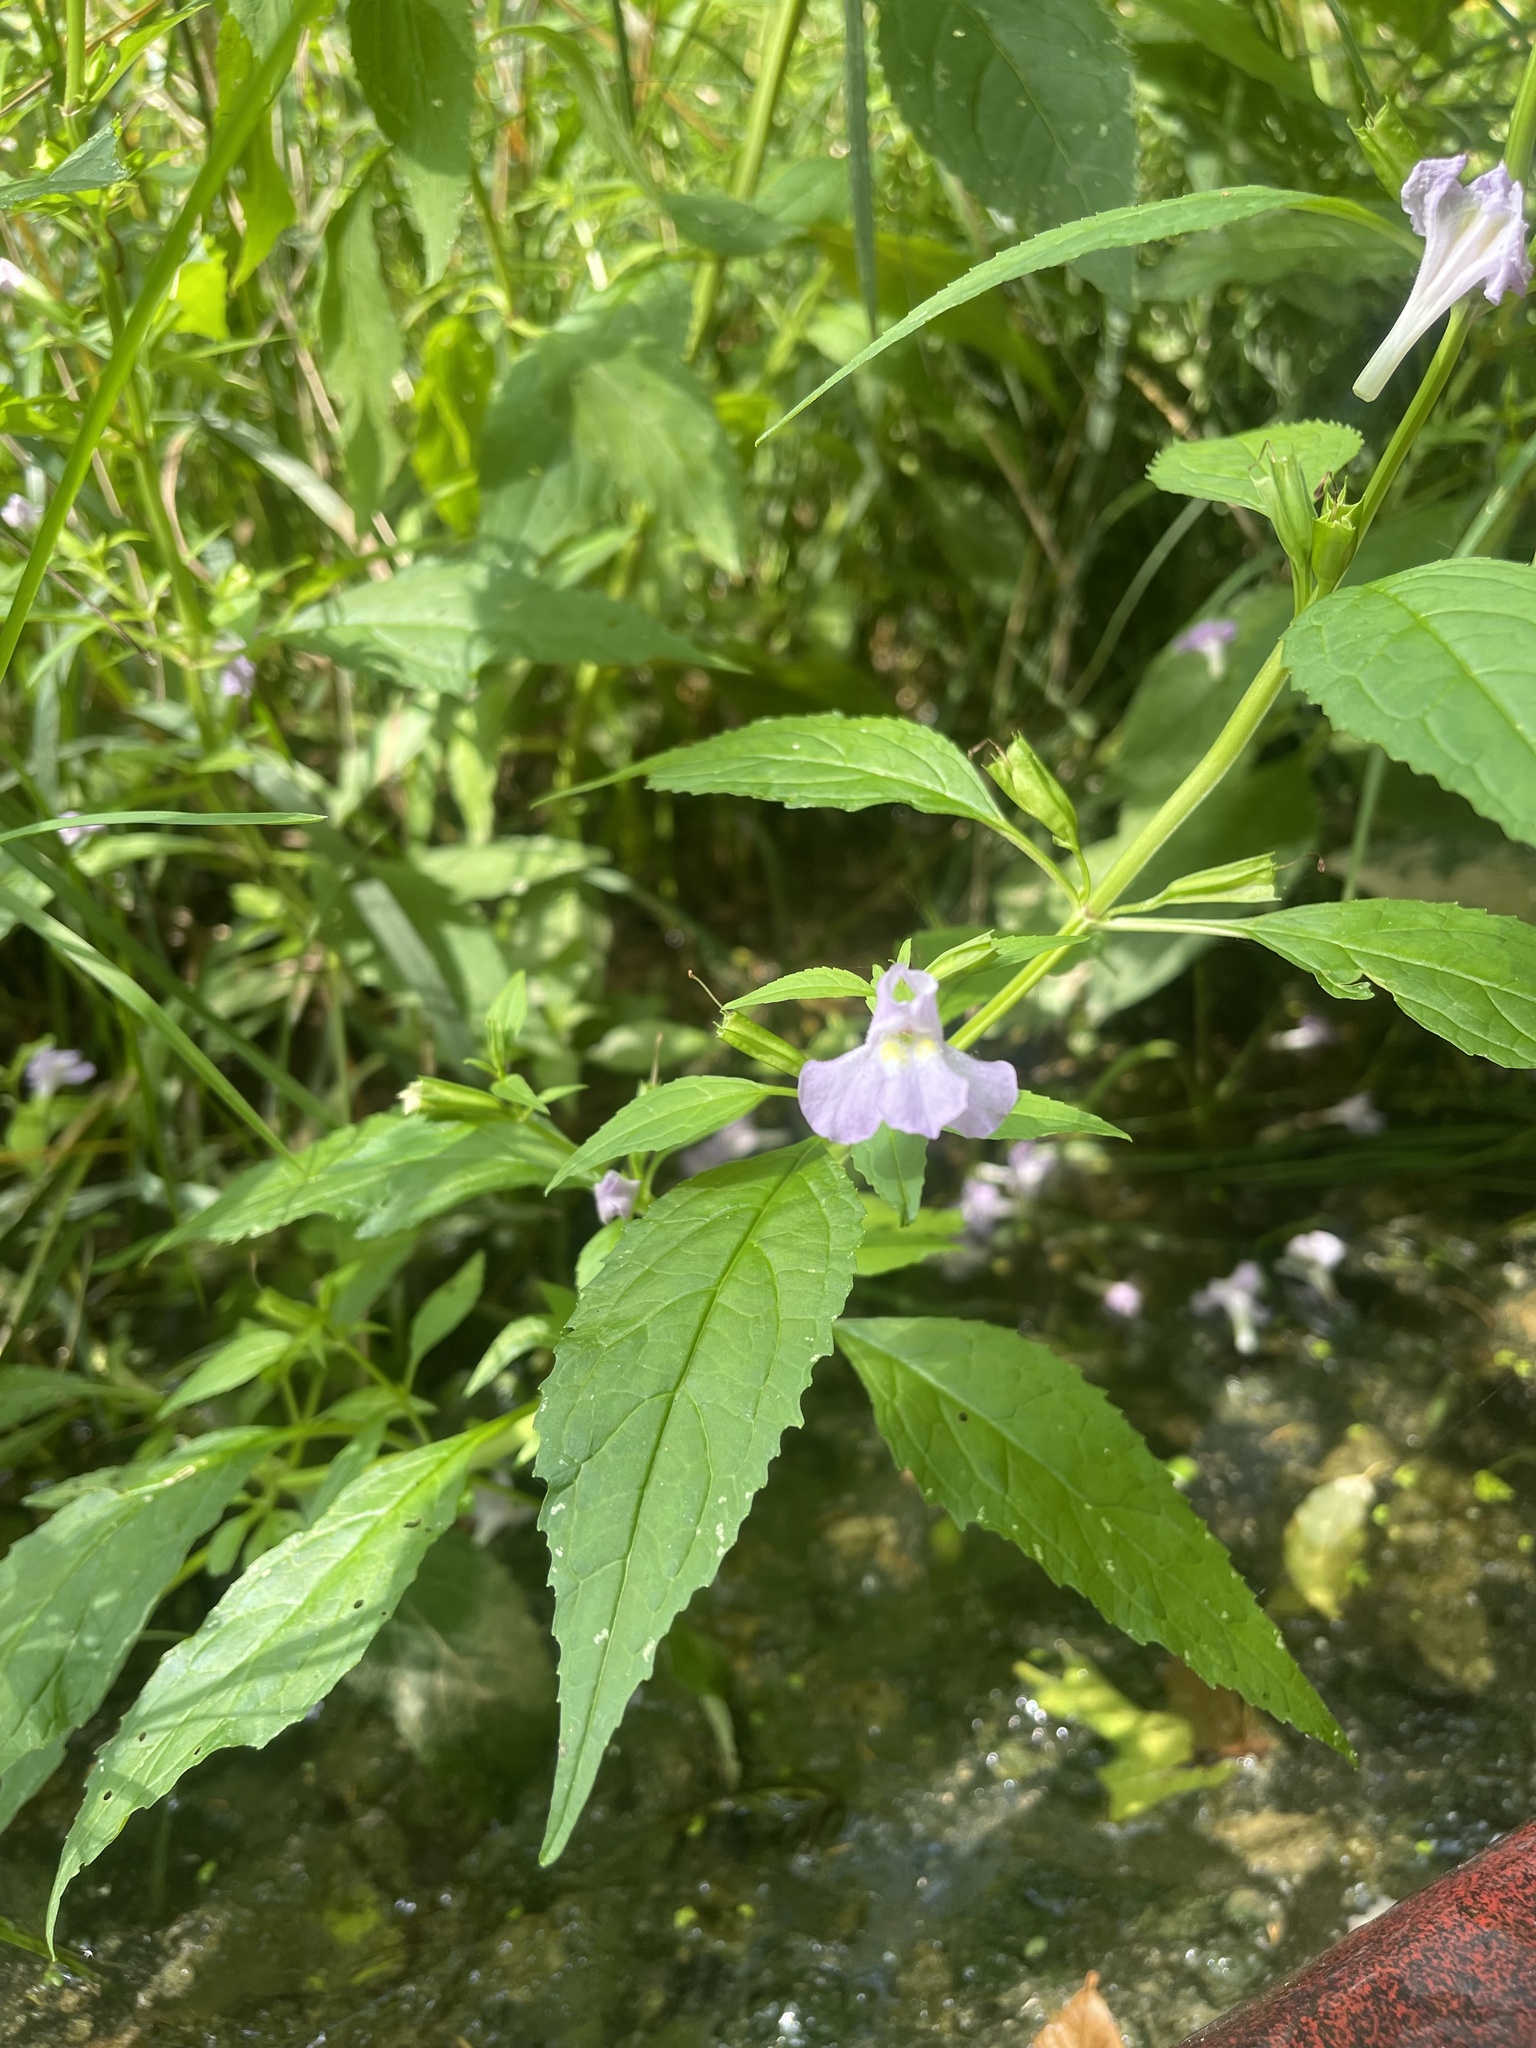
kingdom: Plantae
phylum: Tracheophyta
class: Magnoliopsida
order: Lamiales
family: Phrymaceae
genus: Mimulus
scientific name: Mimulus alatus
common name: Sharp-wing monkey-flower
